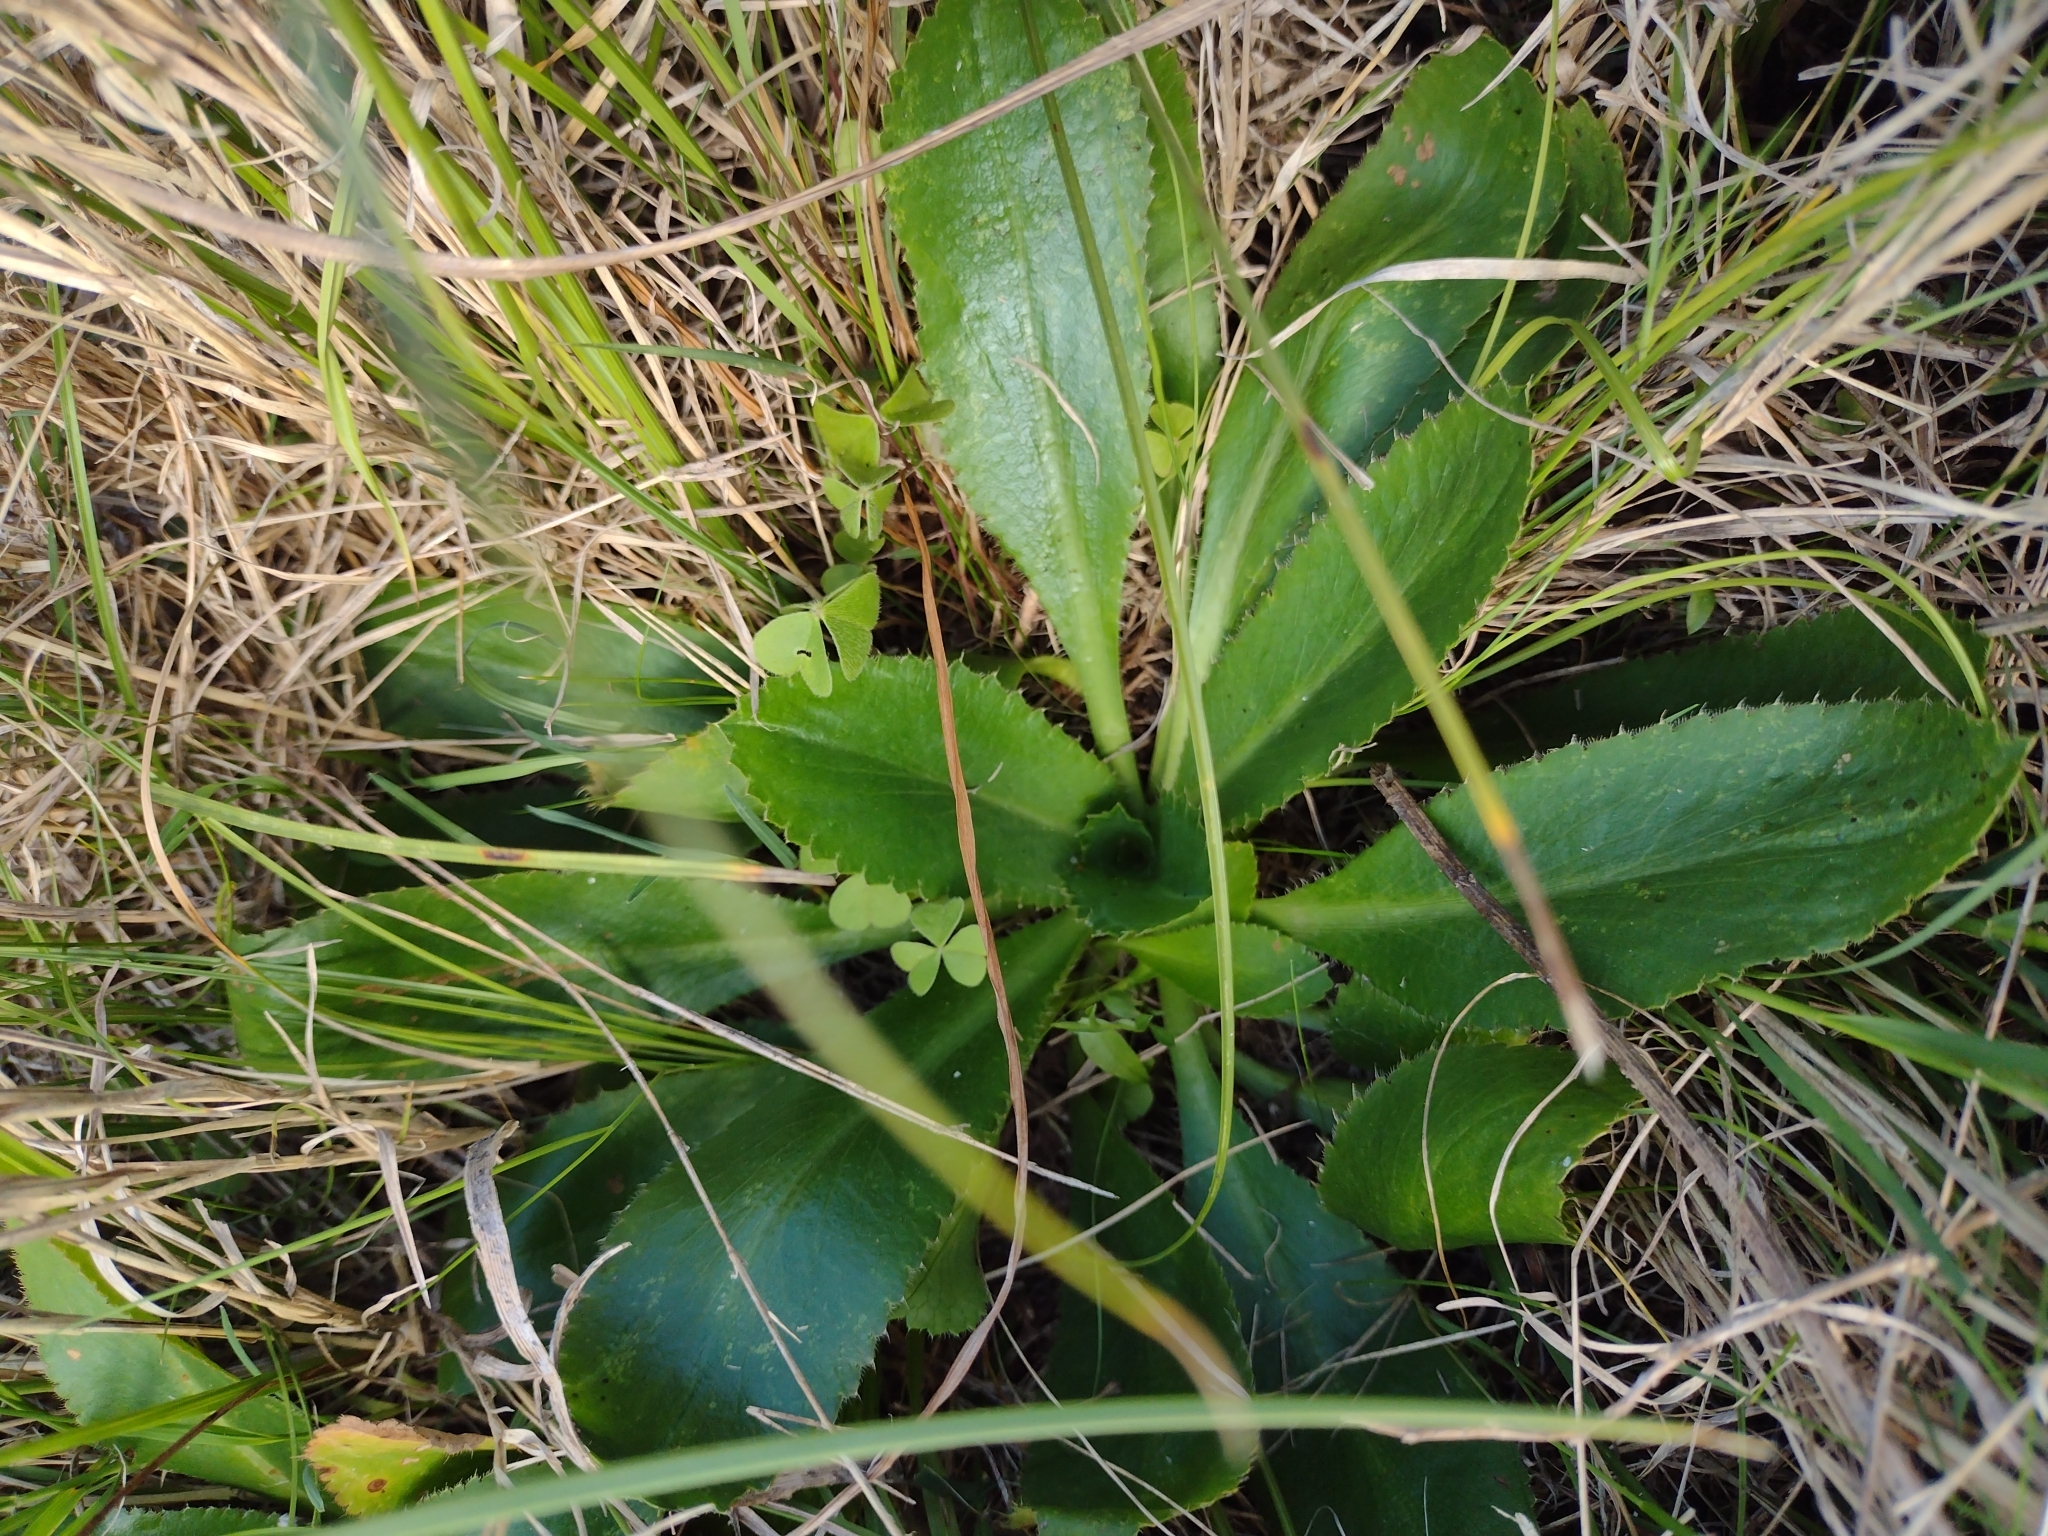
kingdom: Plantae
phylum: Tracheophyta
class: Magnoliopsida
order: Apiales
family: Apiaceae
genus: Eryngium
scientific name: Eryngium nudicaule
